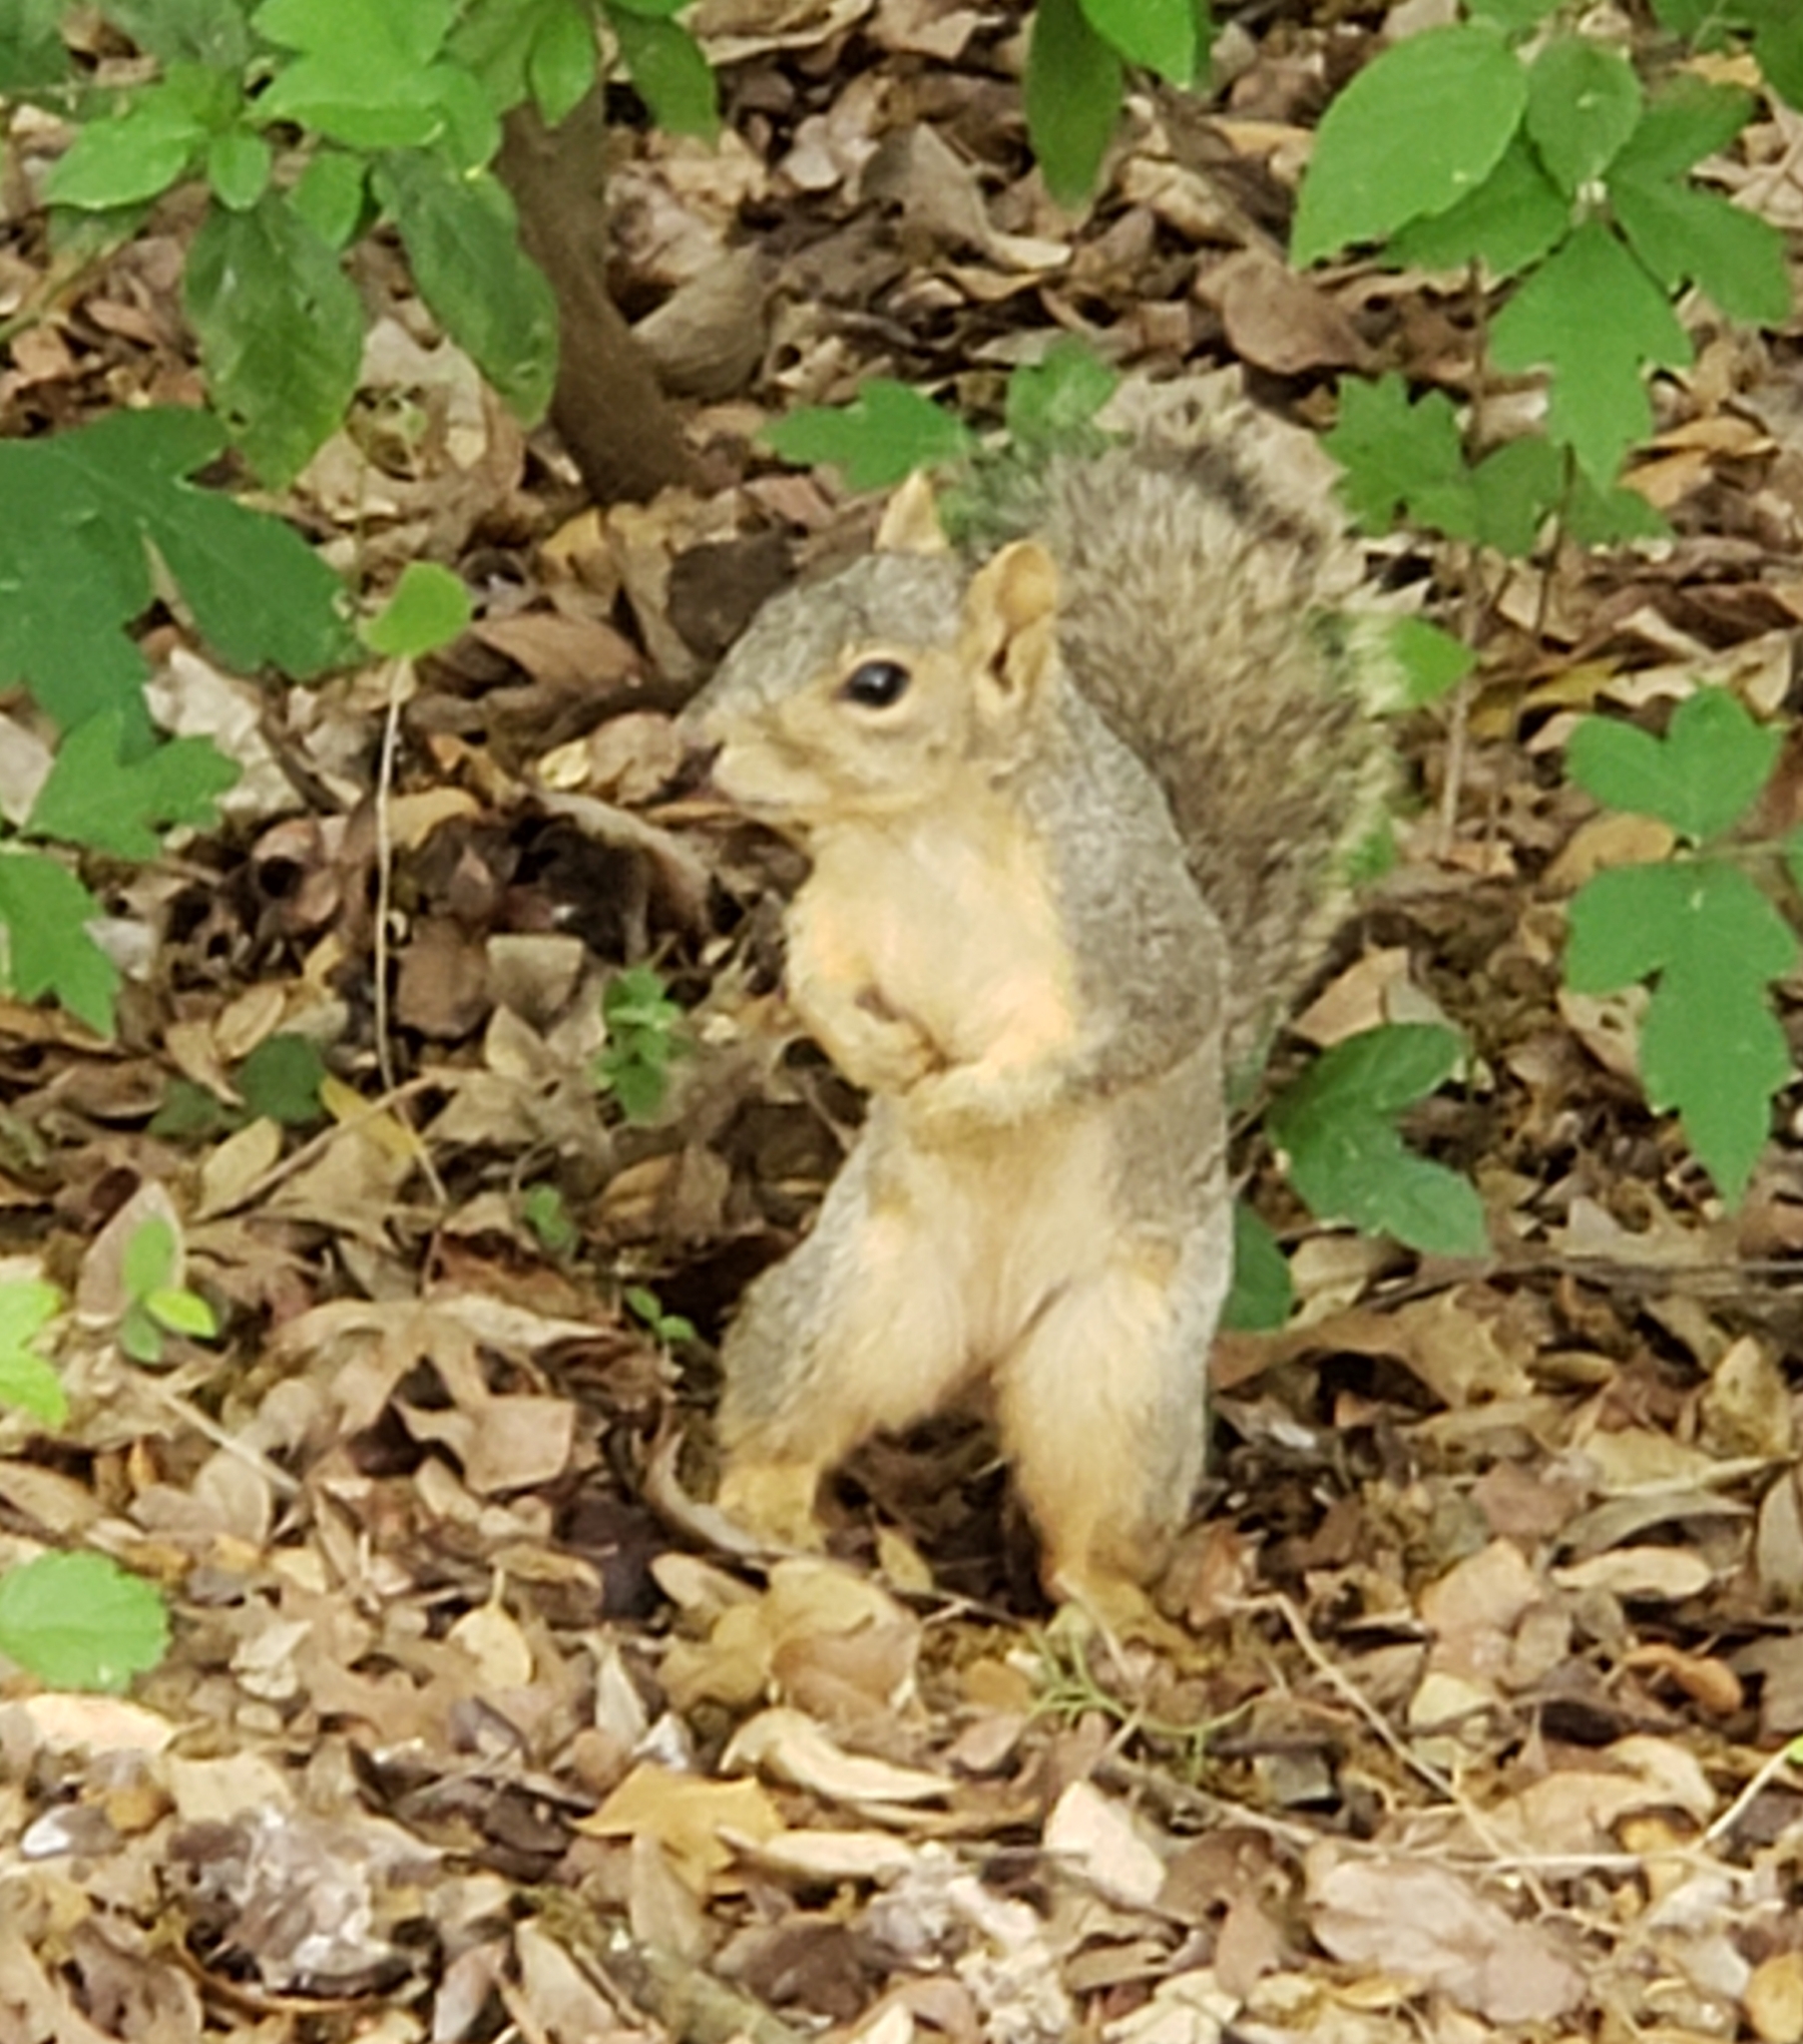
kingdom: Animalia
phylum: Chordata
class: Mammalia
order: Rodentia
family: Sciuridae
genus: Sciurus
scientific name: Sciurus niger
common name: Fox squirrel
